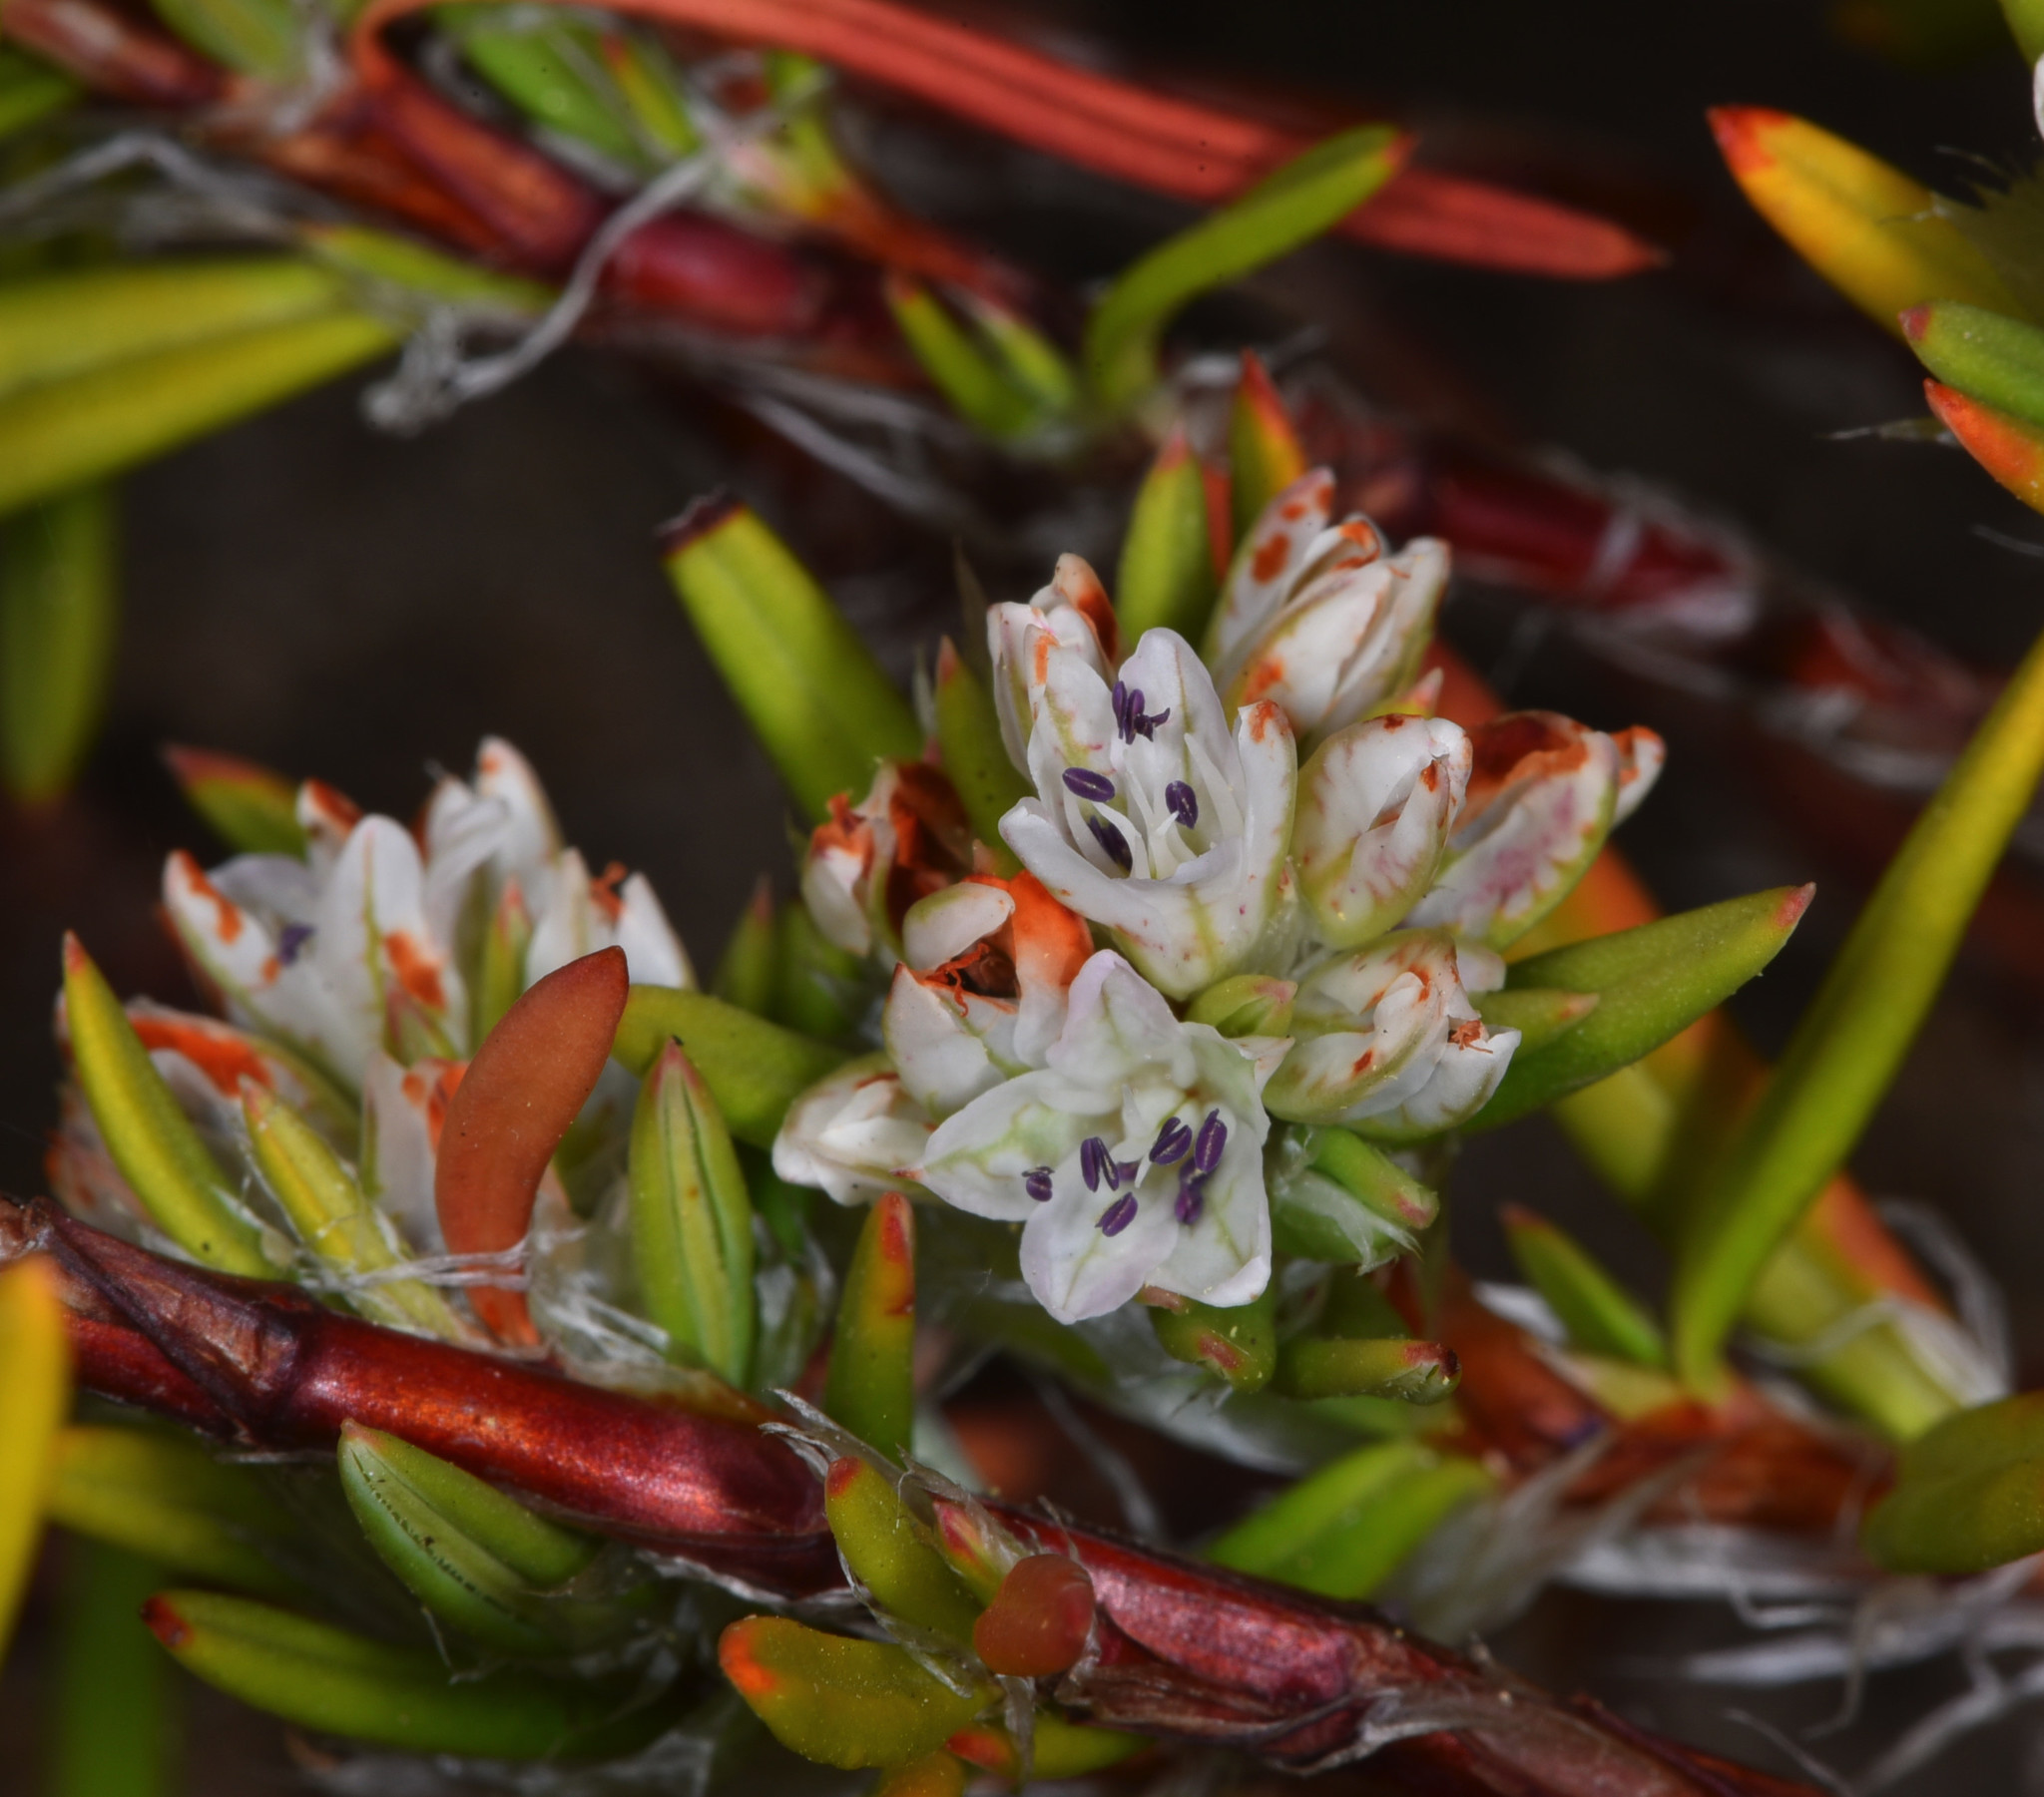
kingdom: Plantae
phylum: Tracheophyta
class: Magnoliopsida
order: Caryophyllales
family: Polygonaceae
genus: Polygonum
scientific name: Polygonum paronychia
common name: Dune knotweed
